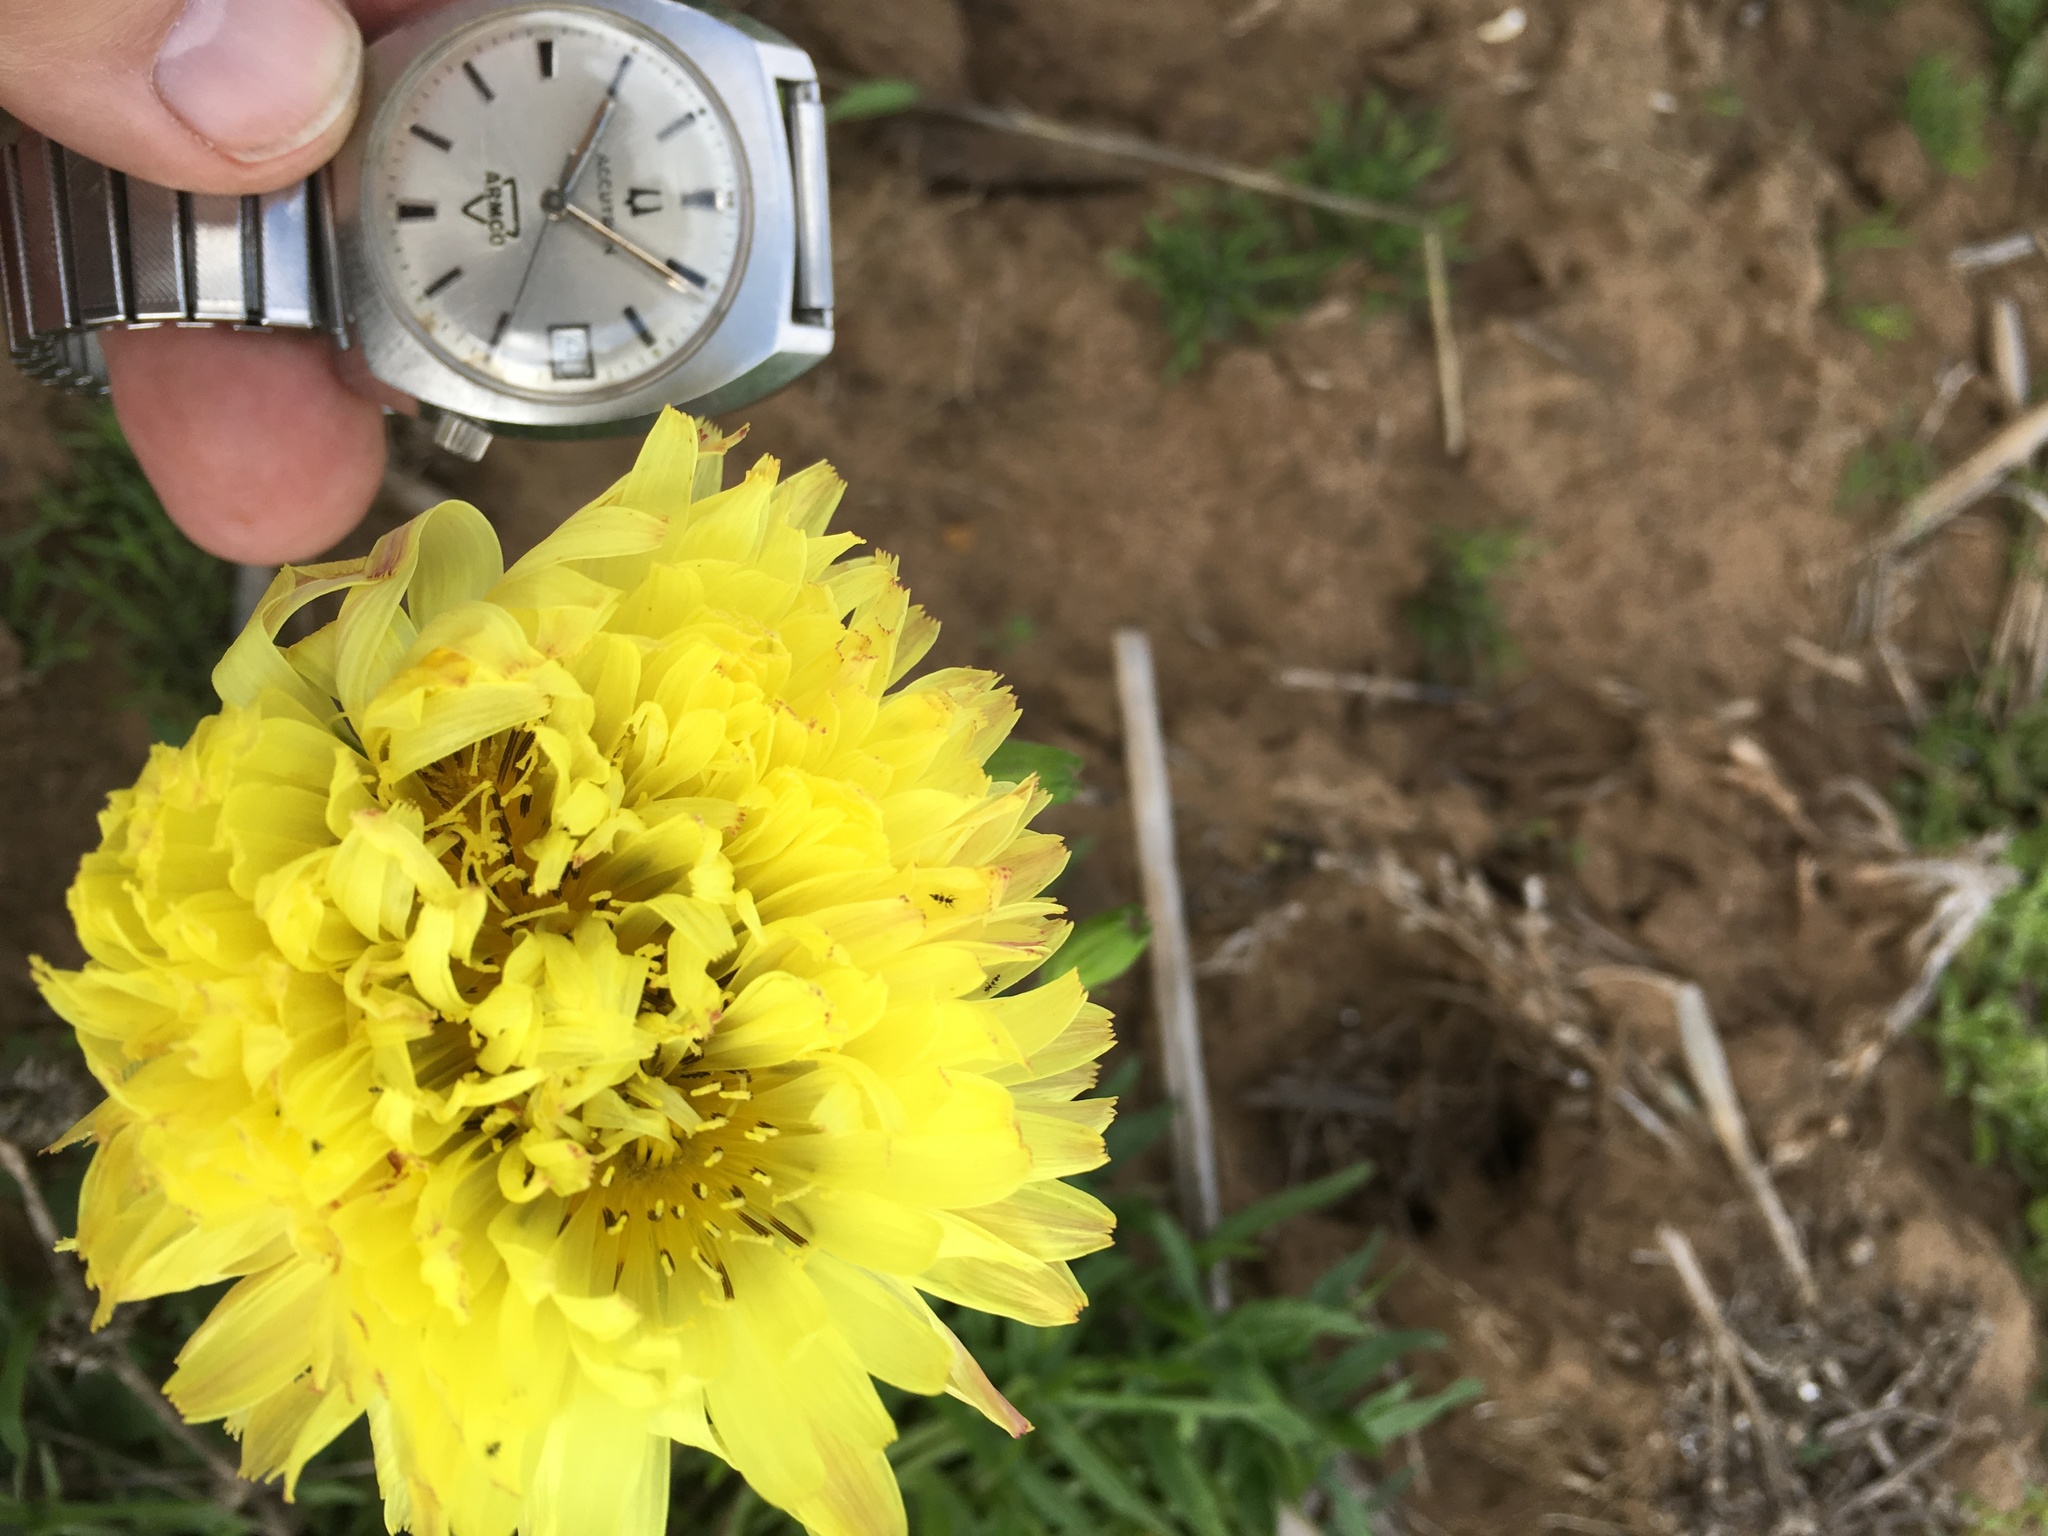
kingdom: Plantae
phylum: Tracheophyta
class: Magnoliopsida
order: Asterales
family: Asteraceae
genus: Pyrrhopappus
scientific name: Pyrrhopappus pauciflorus
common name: Texas false dandelion
